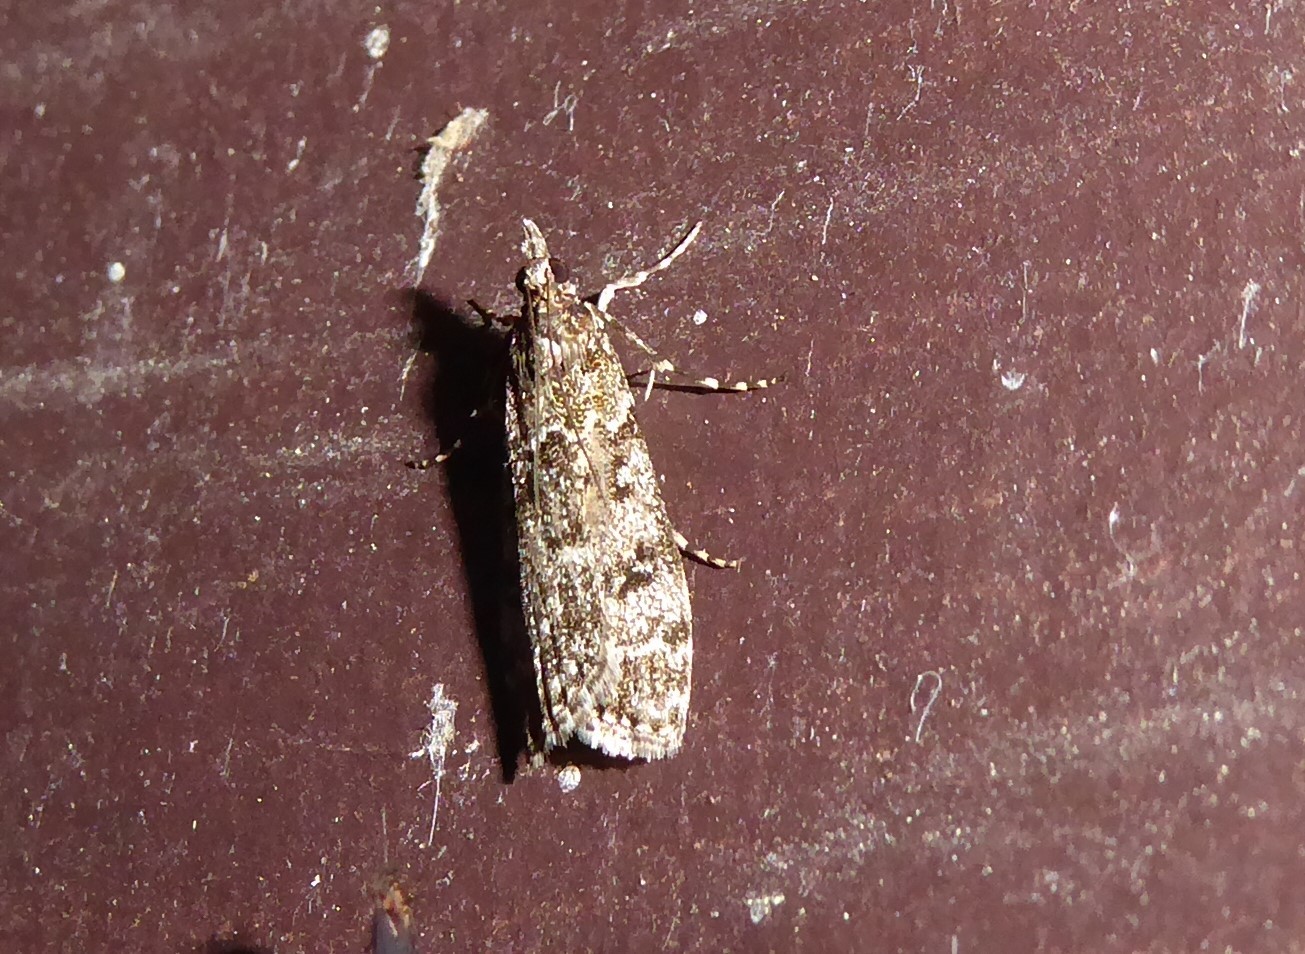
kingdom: Animalia
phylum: Arthropoda
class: Insecta
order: Lepidoptera
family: Crambidae
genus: Eudonia
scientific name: Eudonia philerga
